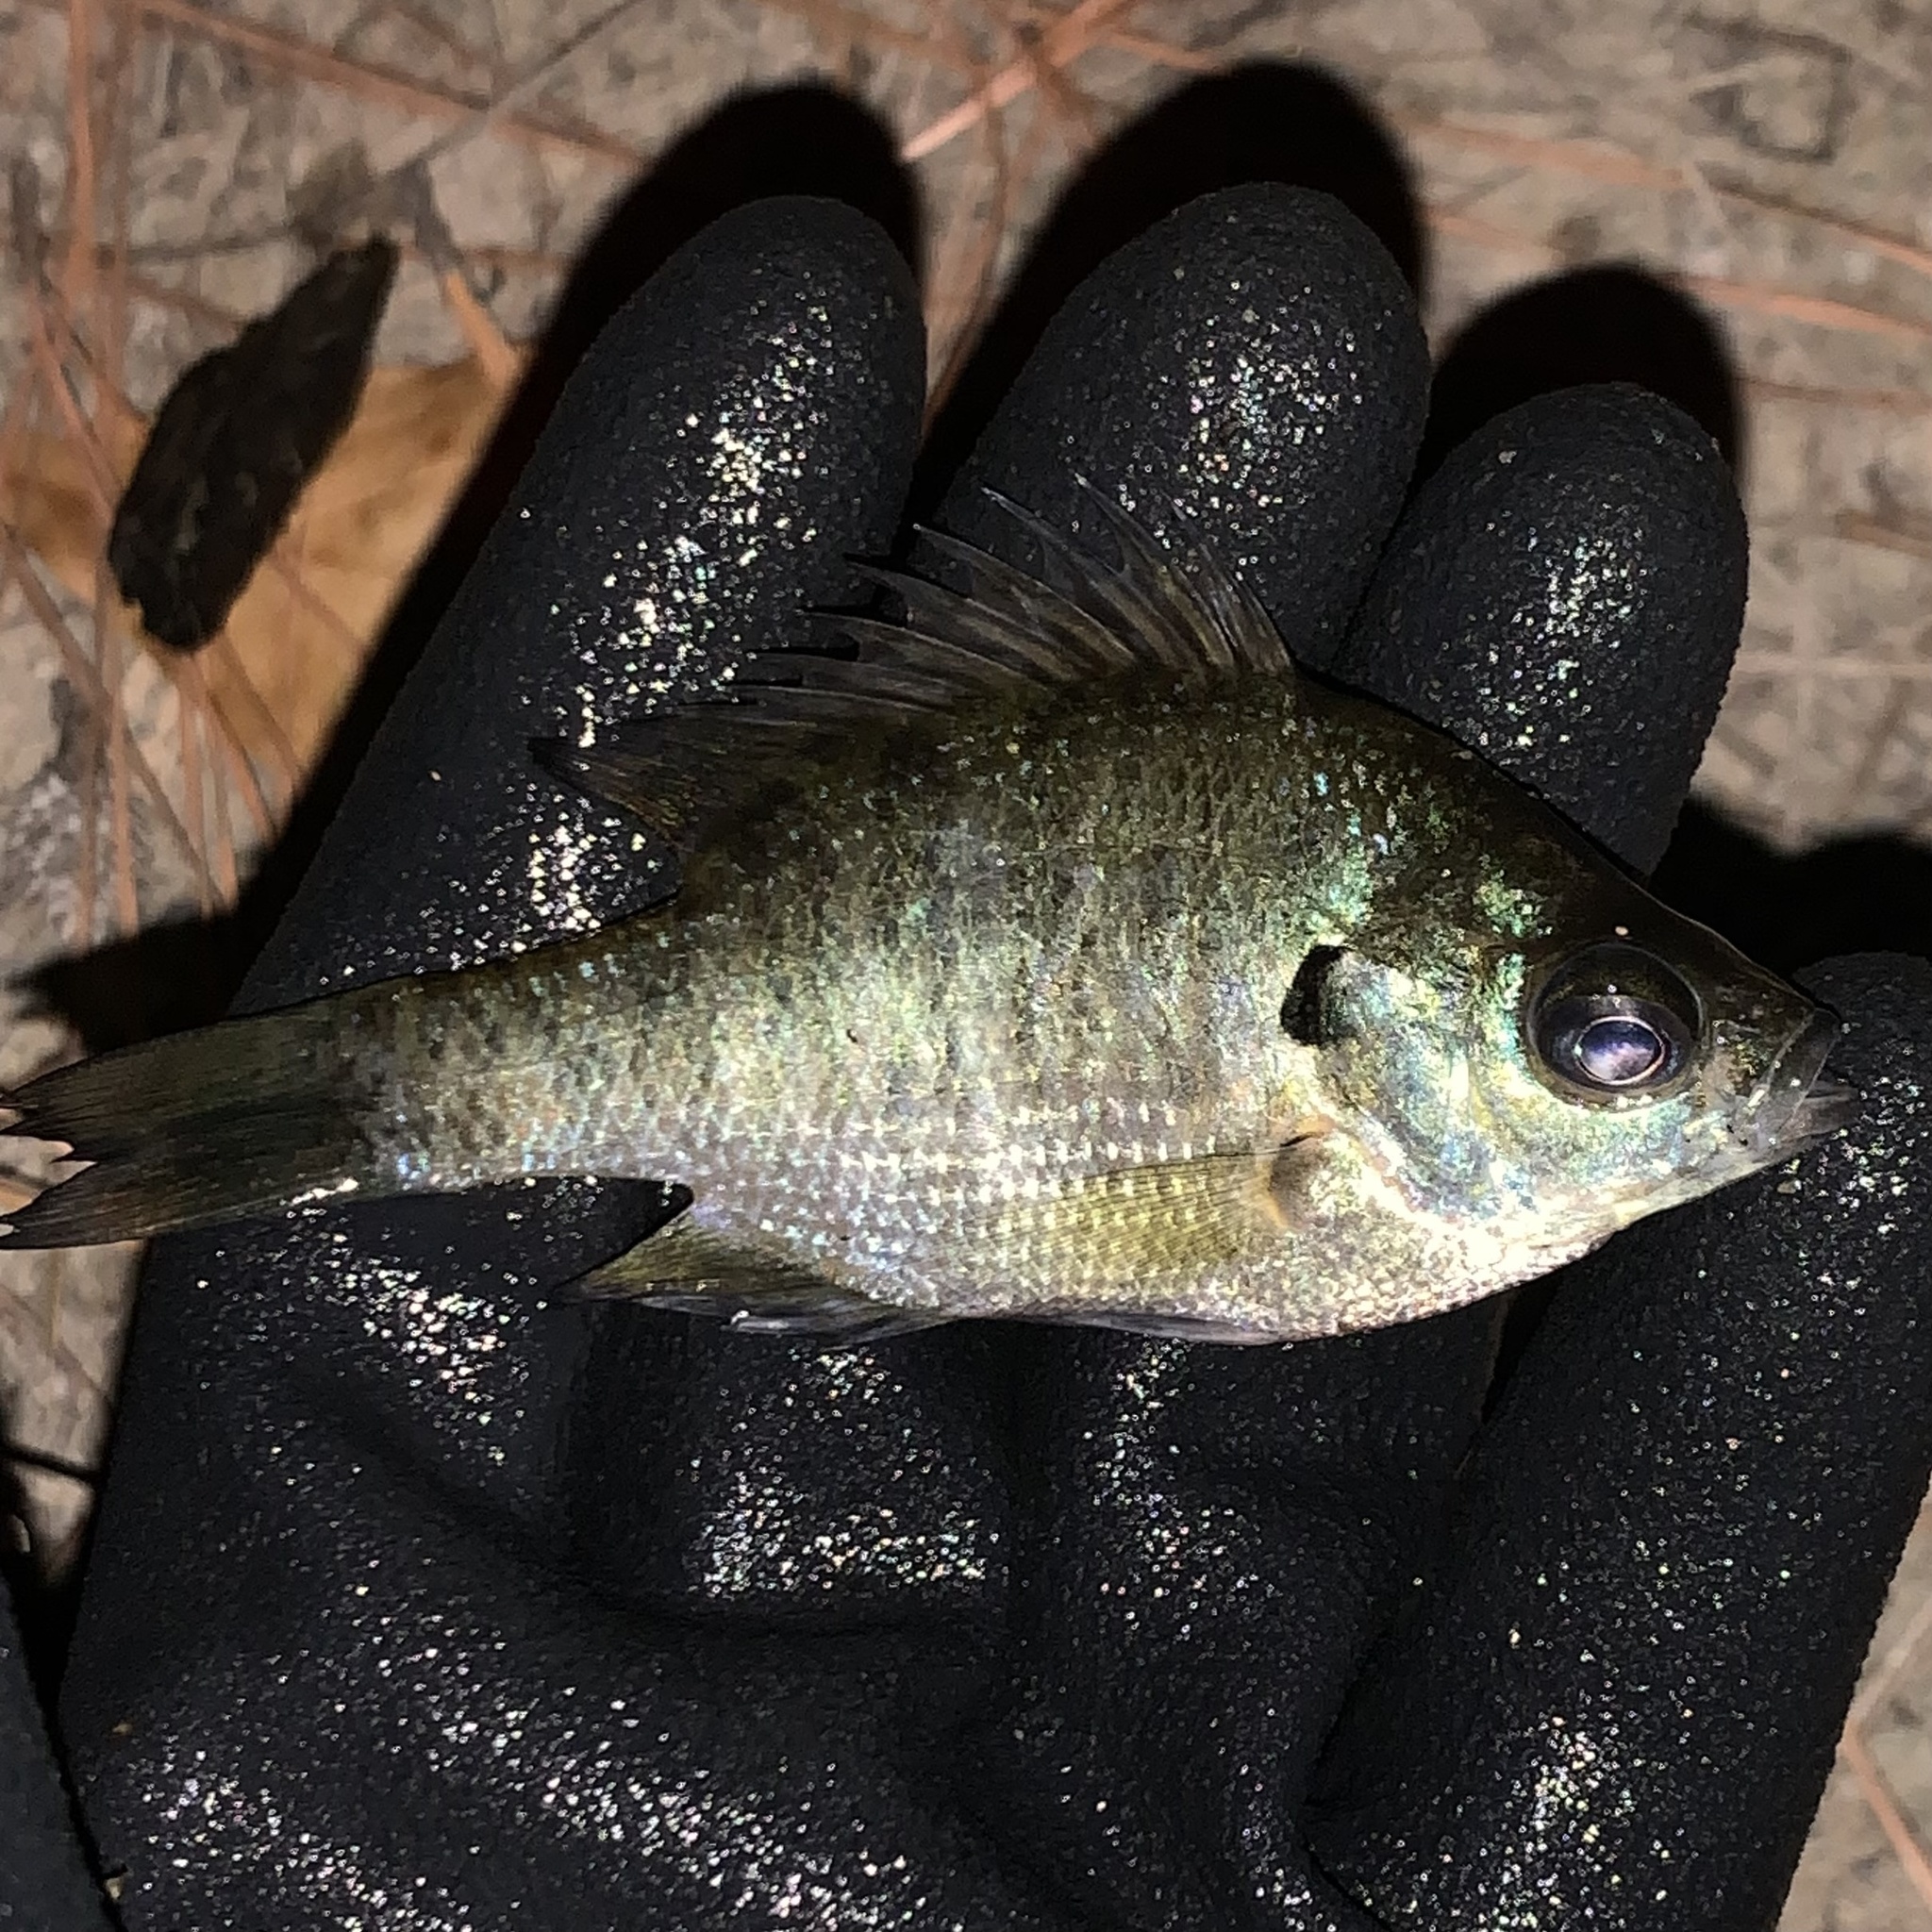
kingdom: Animalia
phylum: Chordata
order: Perciformes
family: Centrarchidae
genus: Lepomis
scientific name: Lepomis macrochirus
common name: Bluegill
